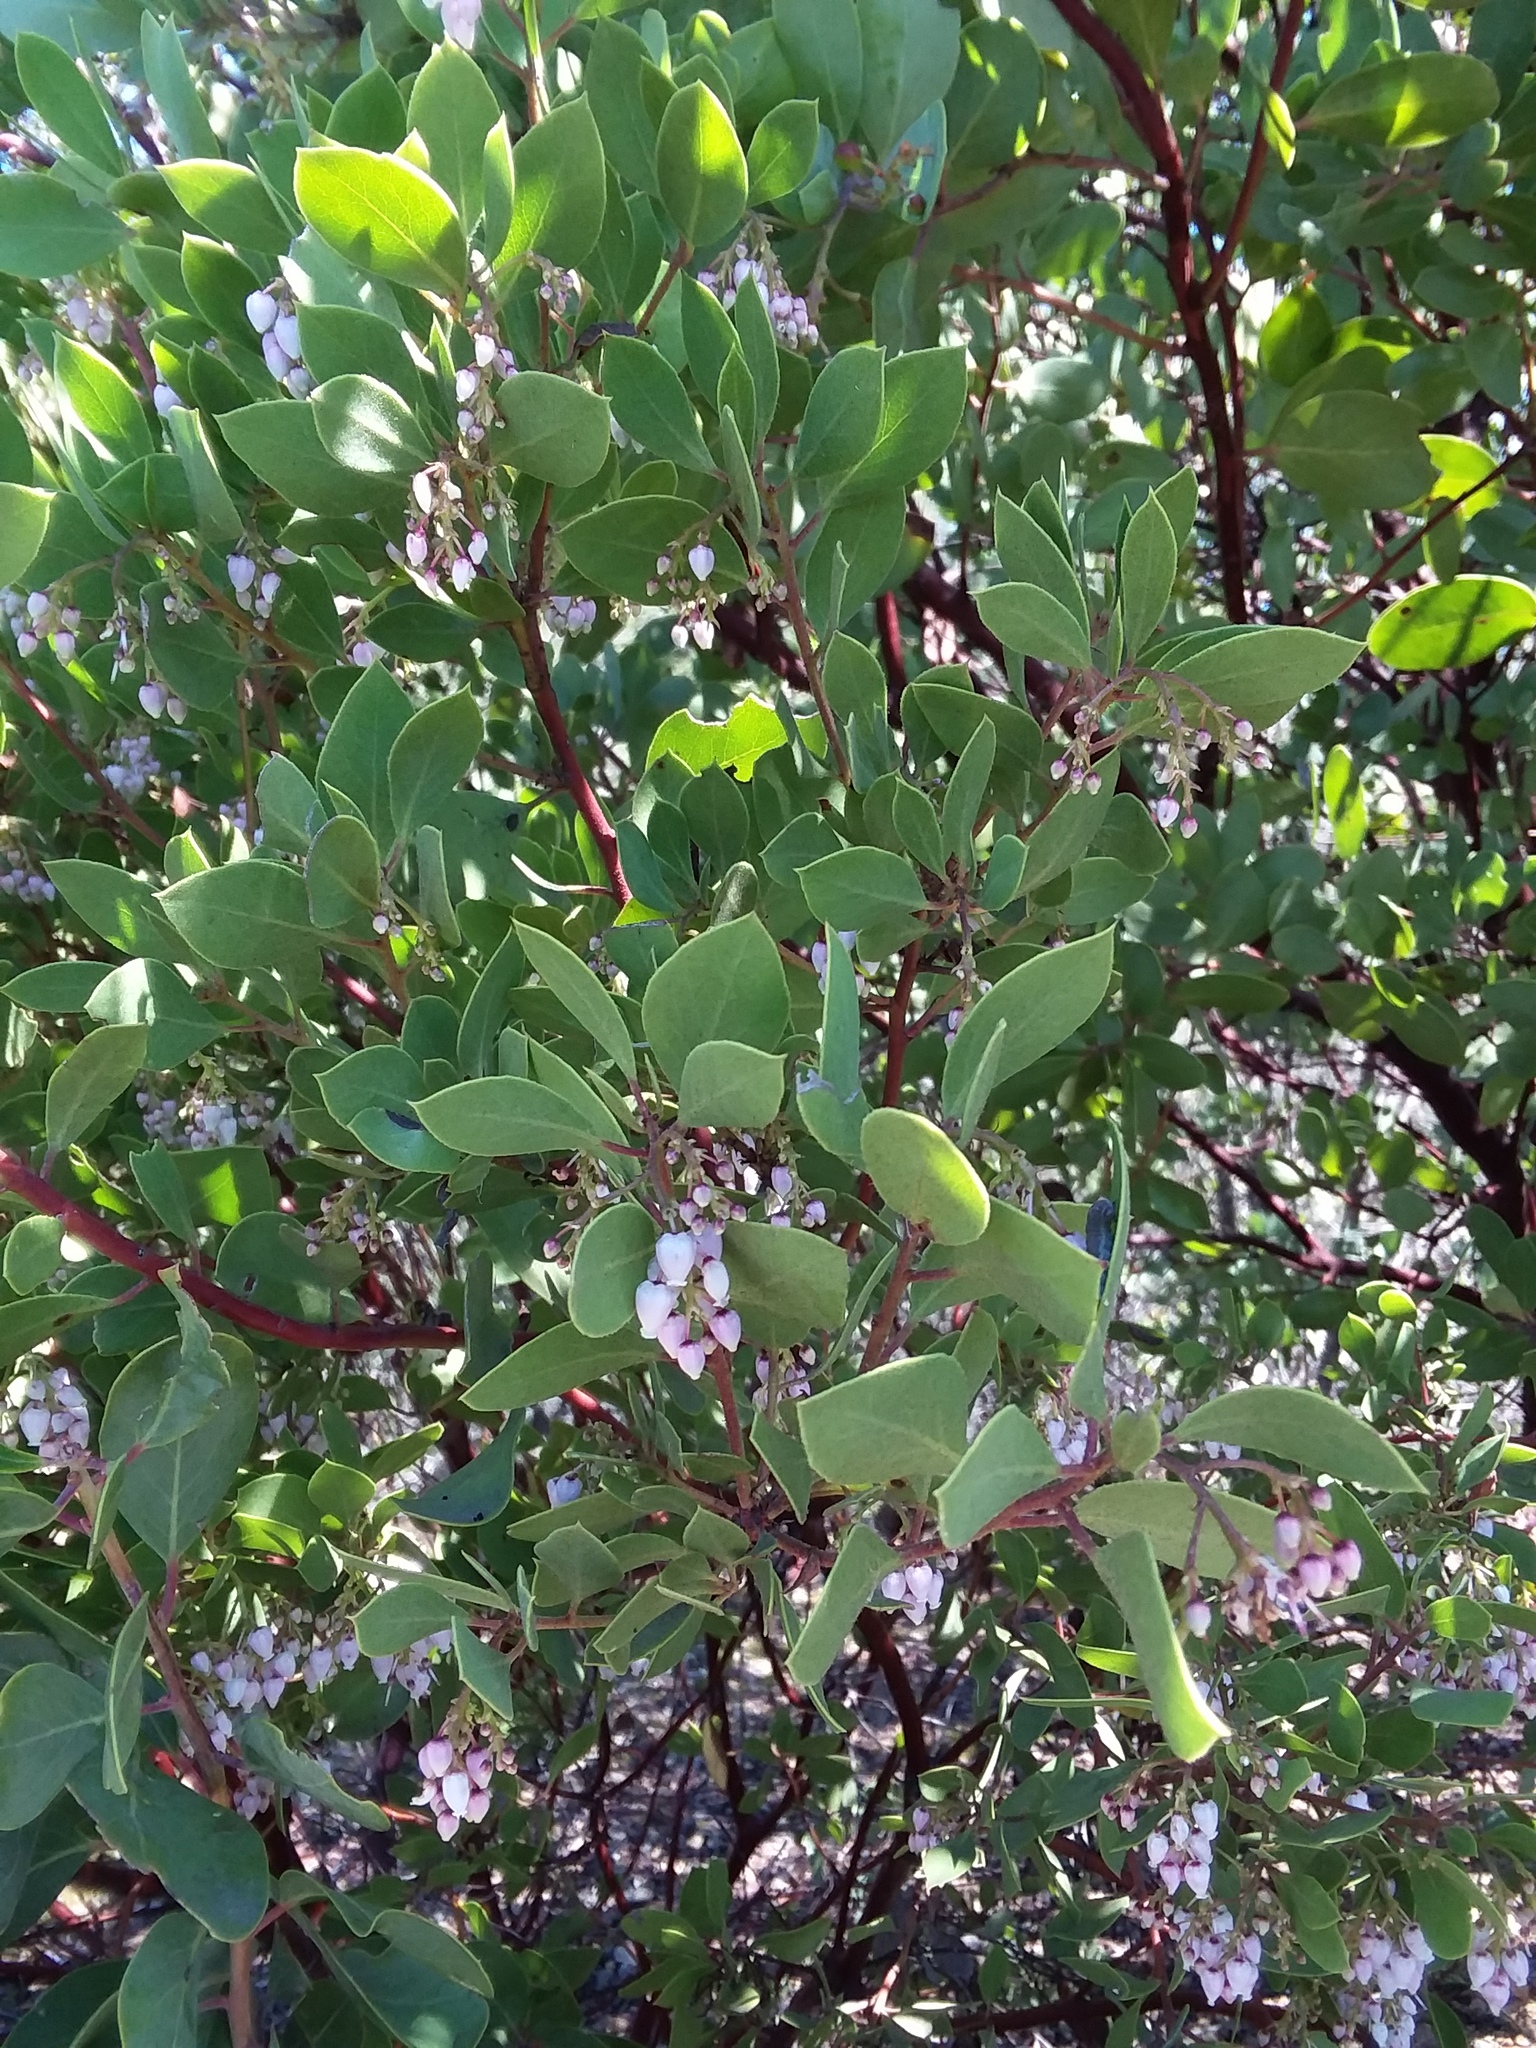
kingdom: Plantae
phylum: Tracheophyta
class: Magnoliopsida
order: Ericales
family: Ericaceae
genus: Arctostaphylos
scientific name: Arctostaphylos hispidula
